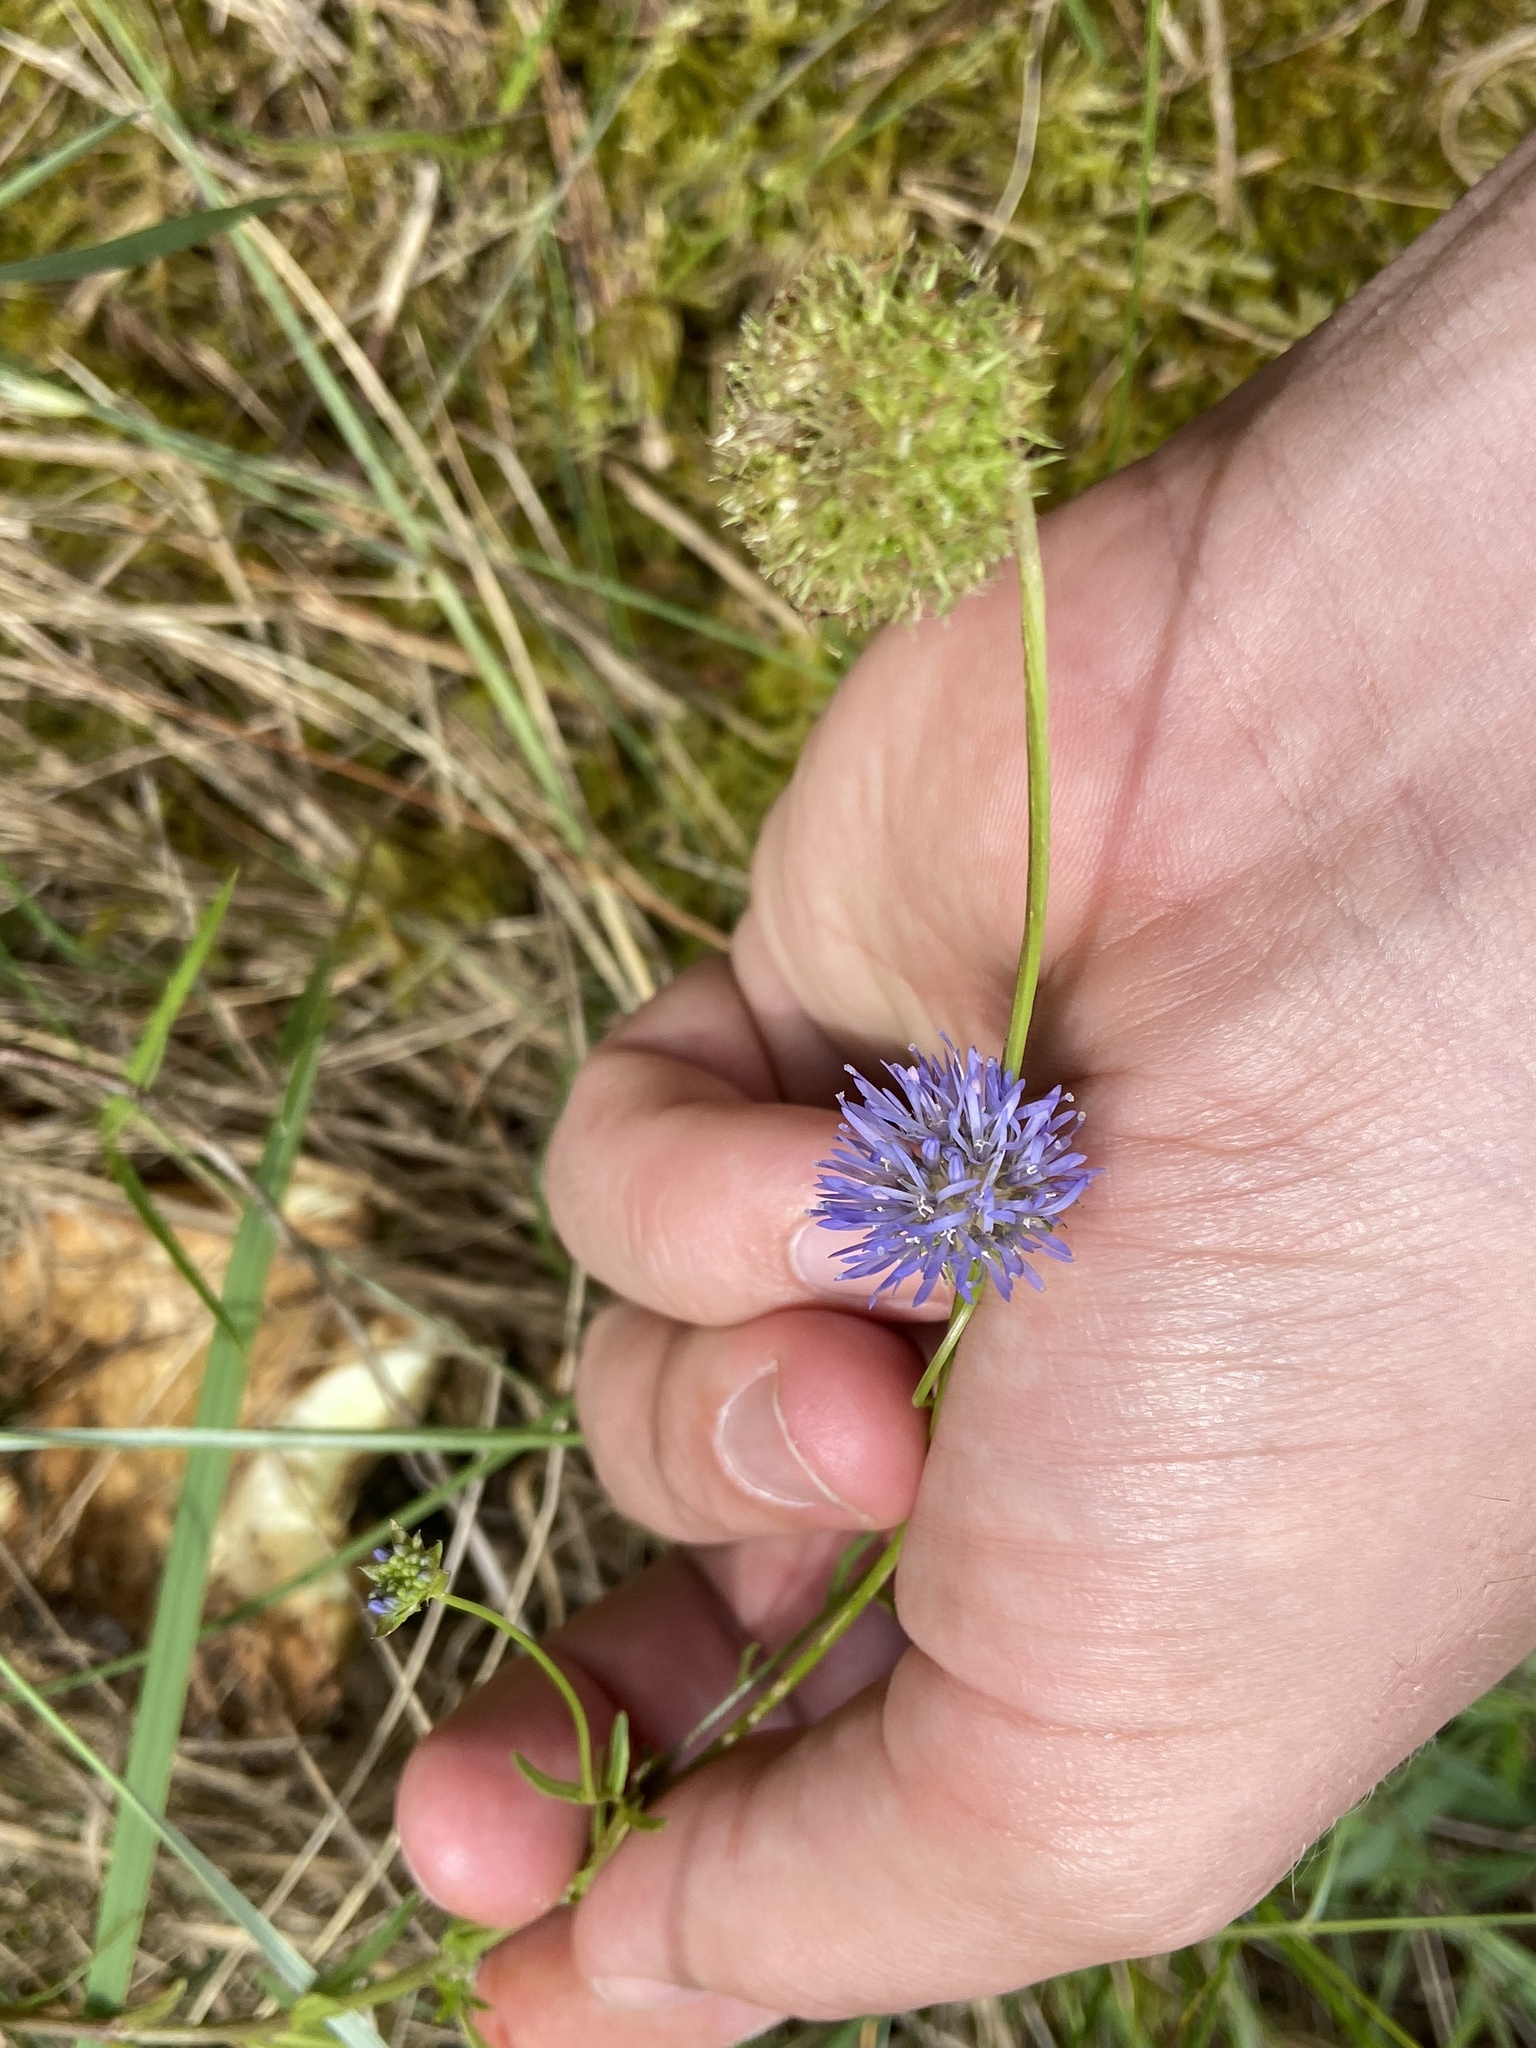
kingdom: Plantae
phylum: Tracheophyta
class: Magnoliopsida
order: Asterales
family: Campanulaceae
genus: Jasione
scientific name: Jasione montana
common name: Sheep's-bit
